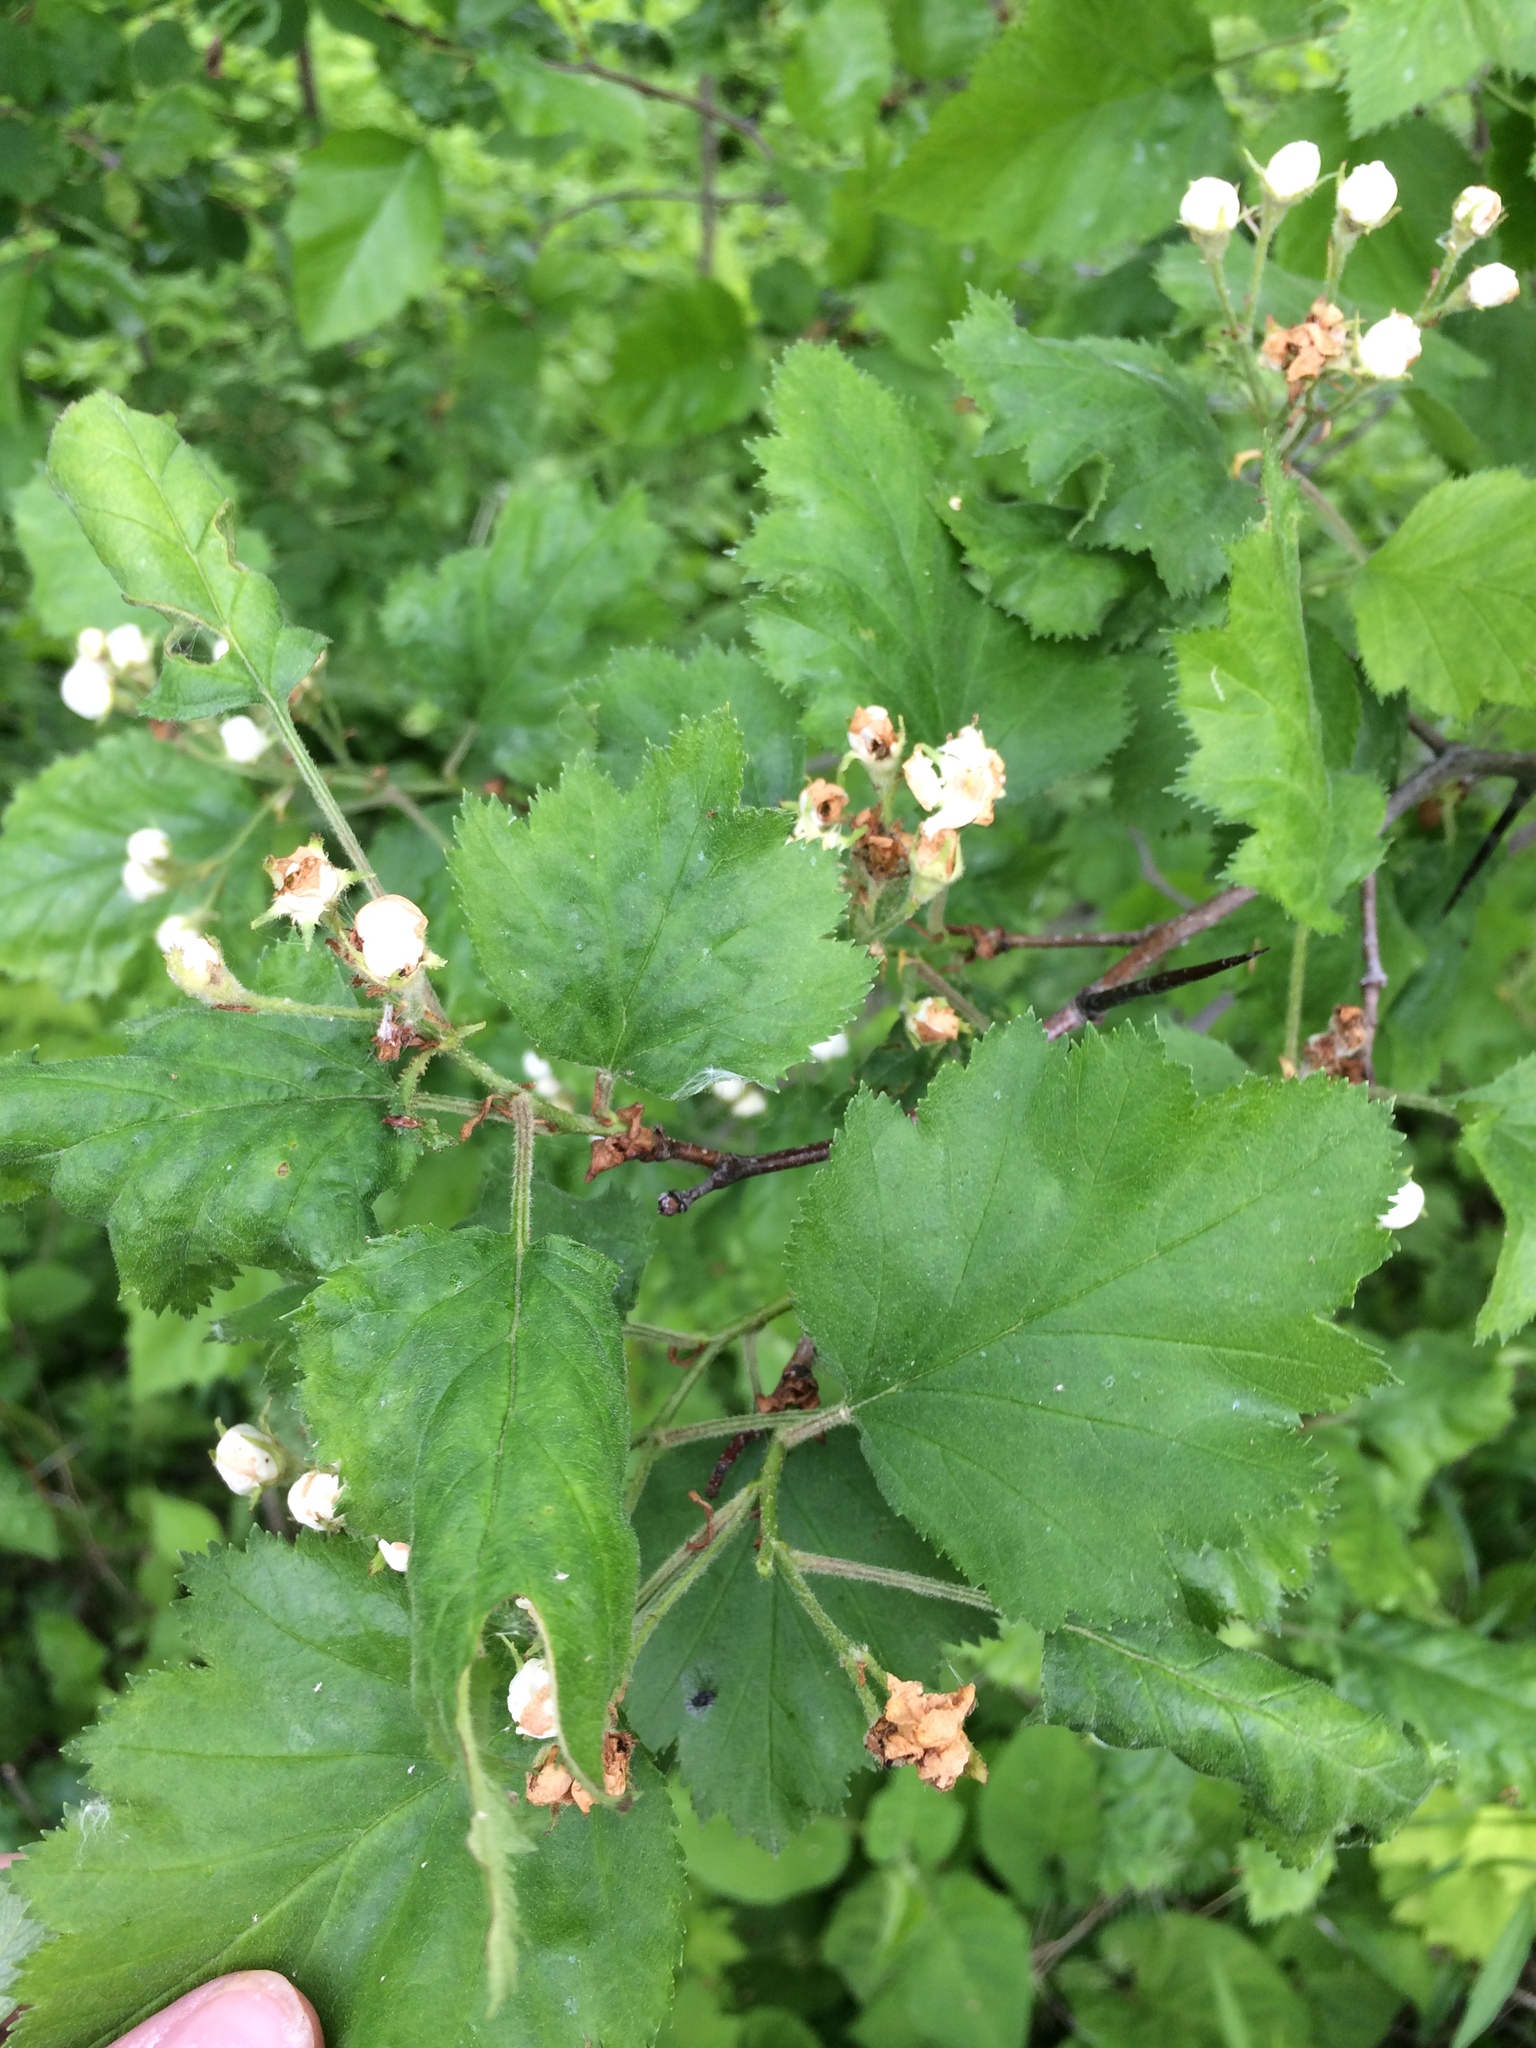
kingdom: Plantae
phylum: Tracheophyta
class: Magnoliopsida
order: Rosales
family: Rosaceae
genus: Crataegus
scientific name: Crataegus submollis
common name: Hairy cockspurthorn
